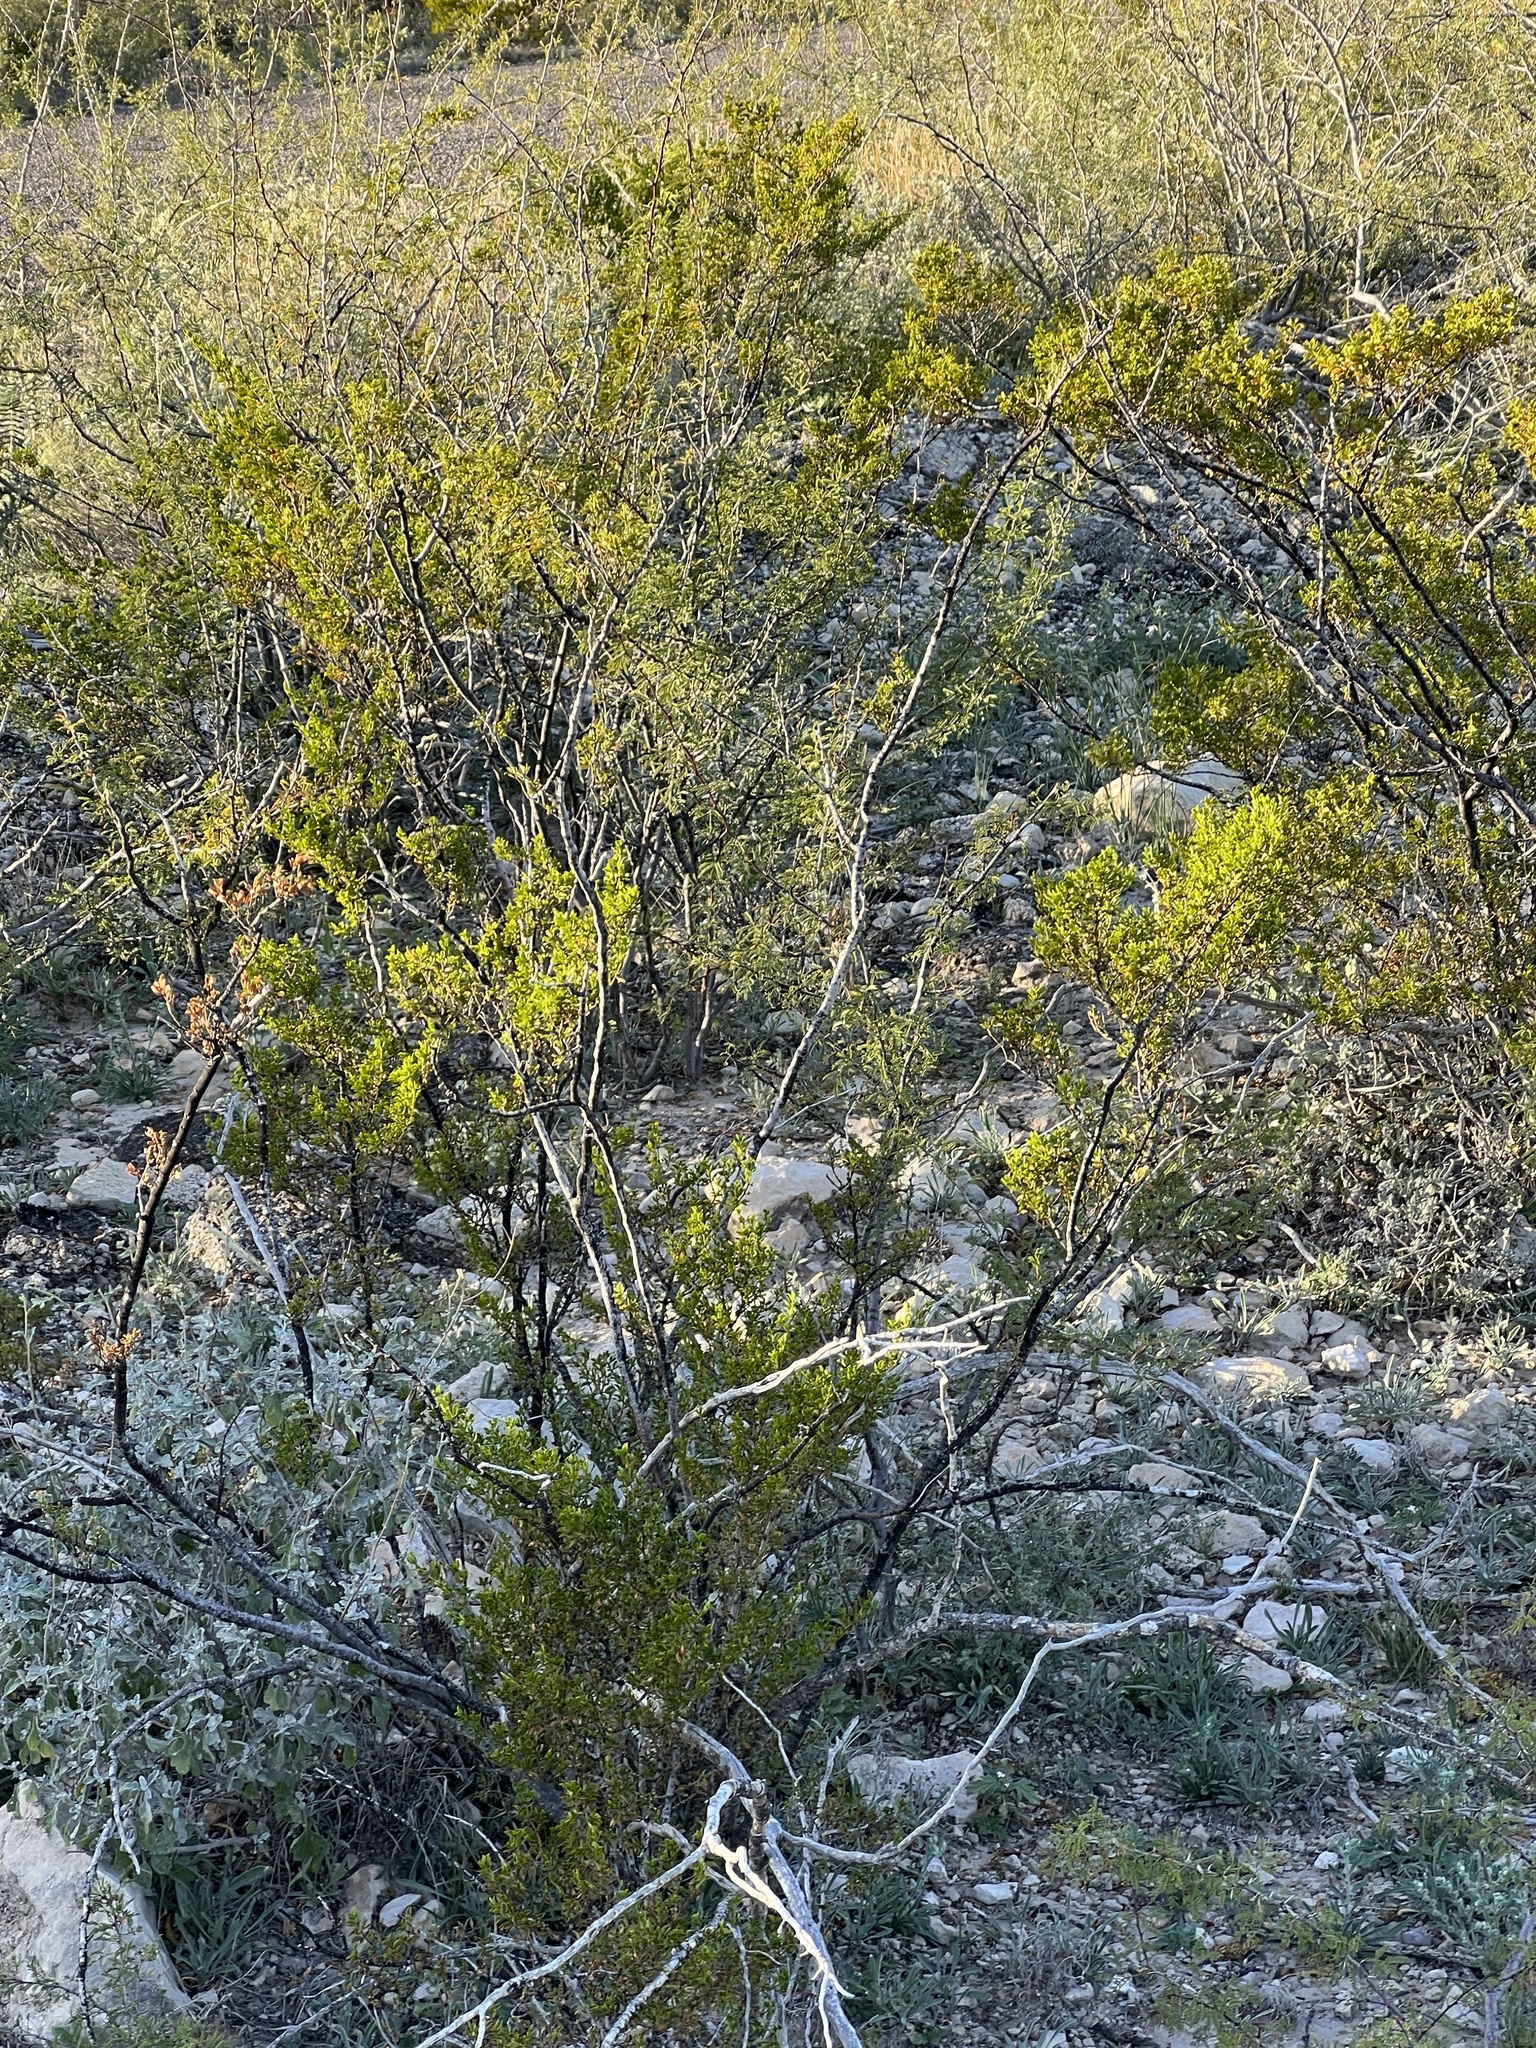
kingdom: Plantae
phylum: Tracheophyta
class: Magnoliopsida
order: Zygophyllales
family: Zygophyllaceae
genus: Larrea
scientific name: Larrea tridentata
